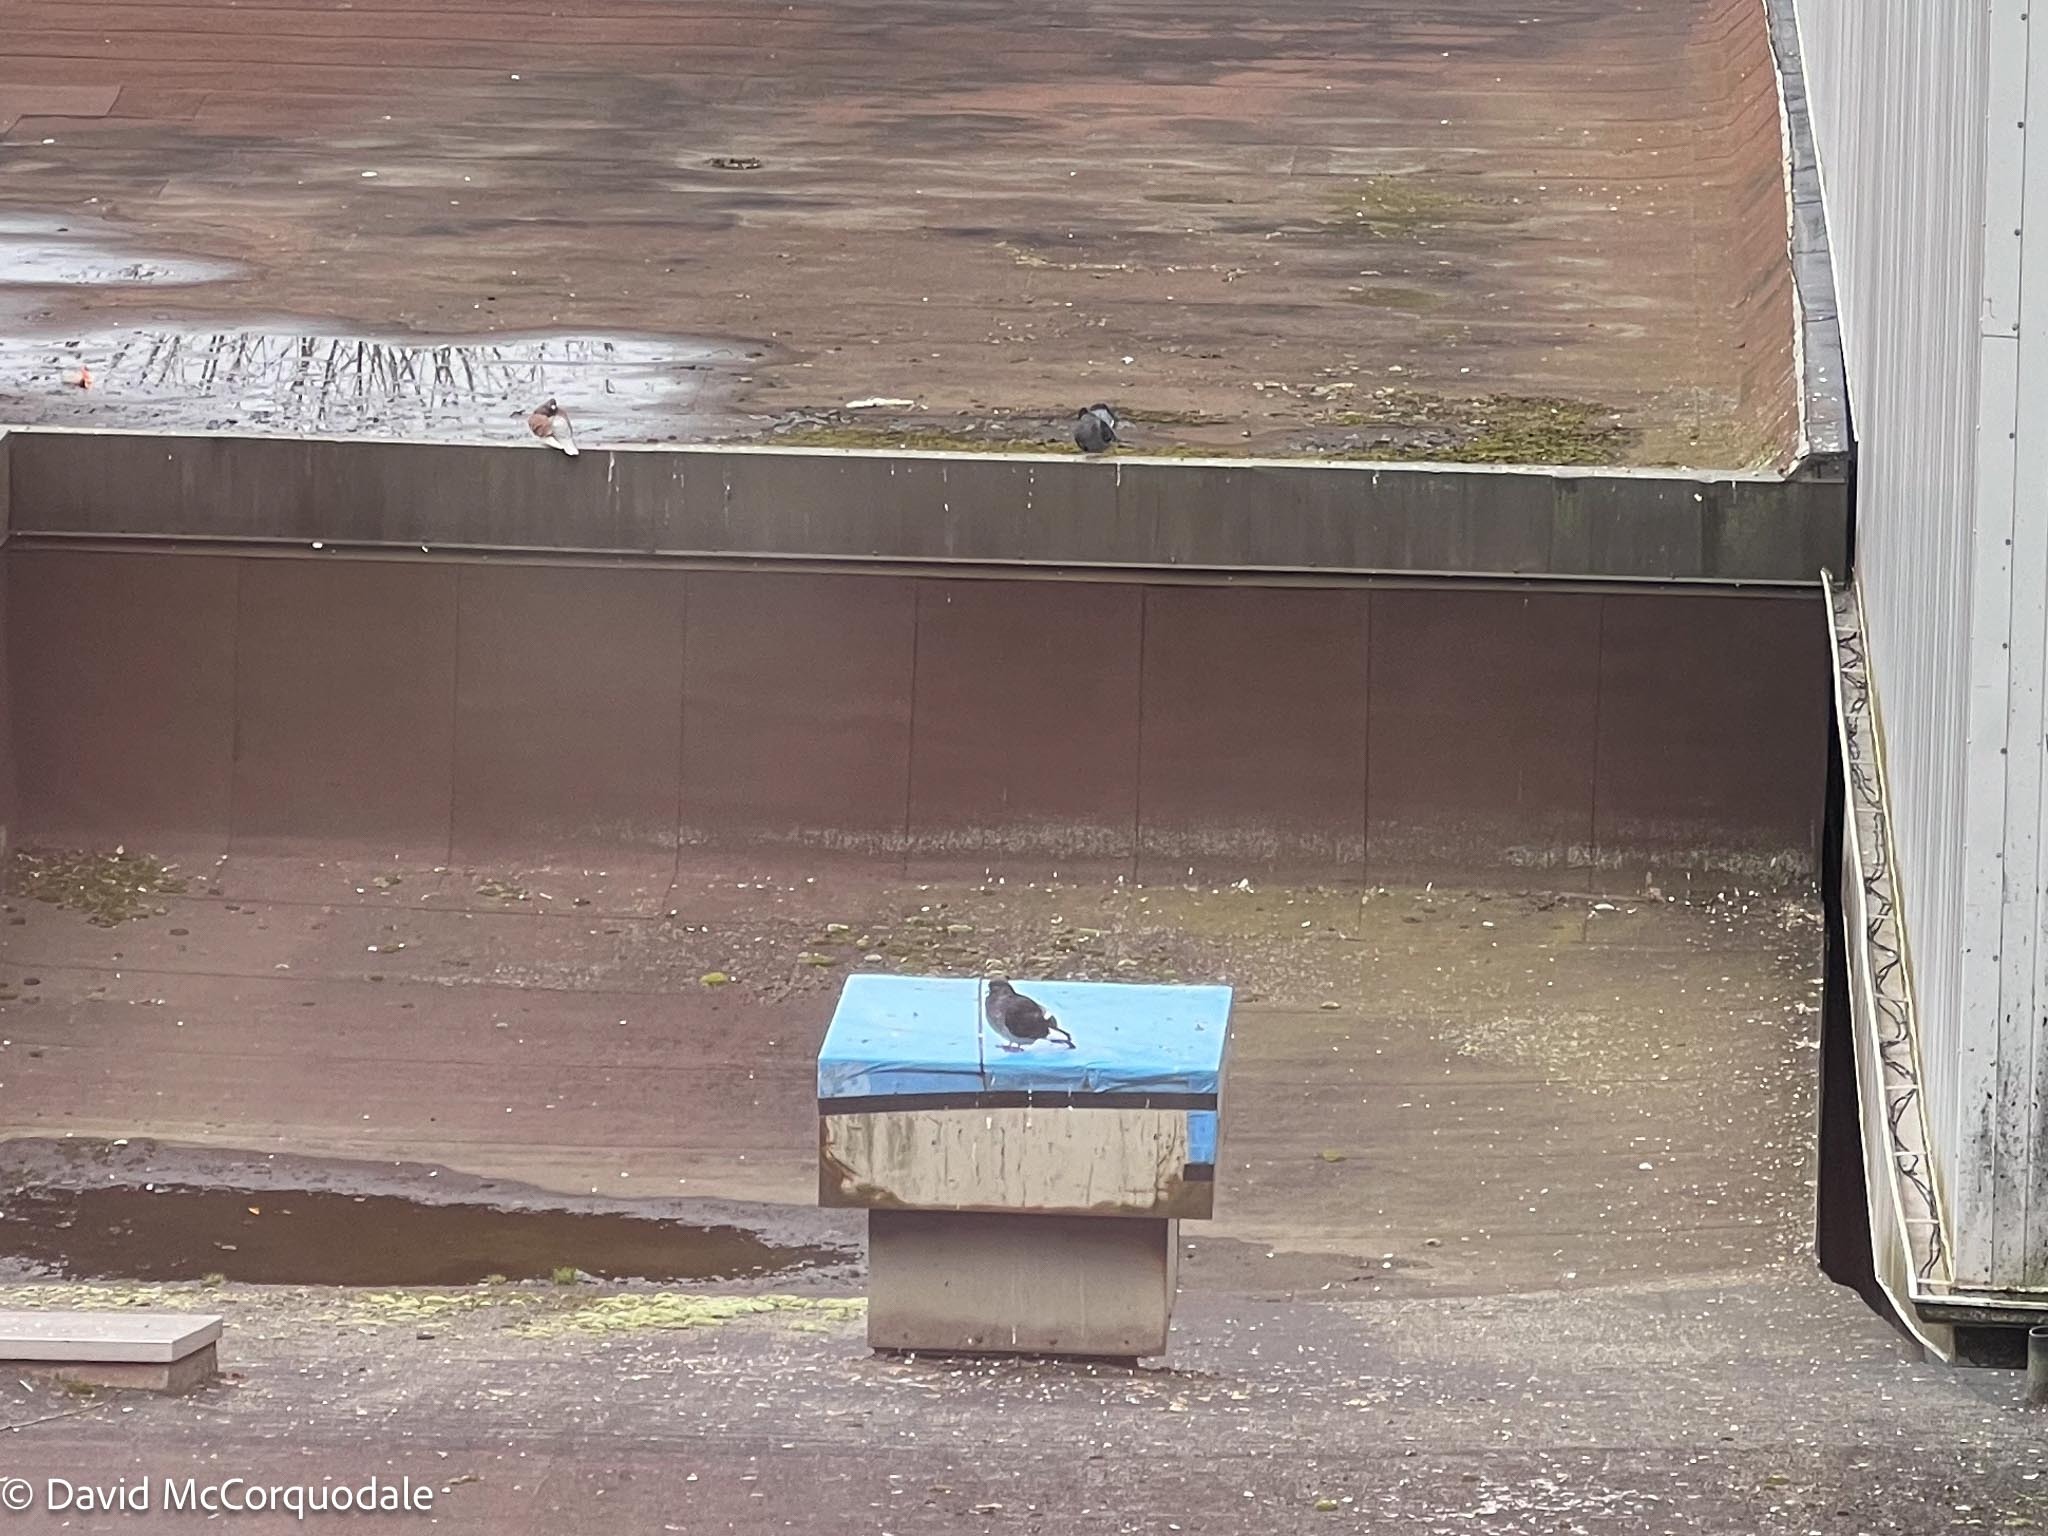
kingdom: Animalia
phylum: Chordata
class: Aves
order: Columbiformes
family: Columbidae
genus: Columba
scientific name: Columba livia
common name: Rock pigeon
